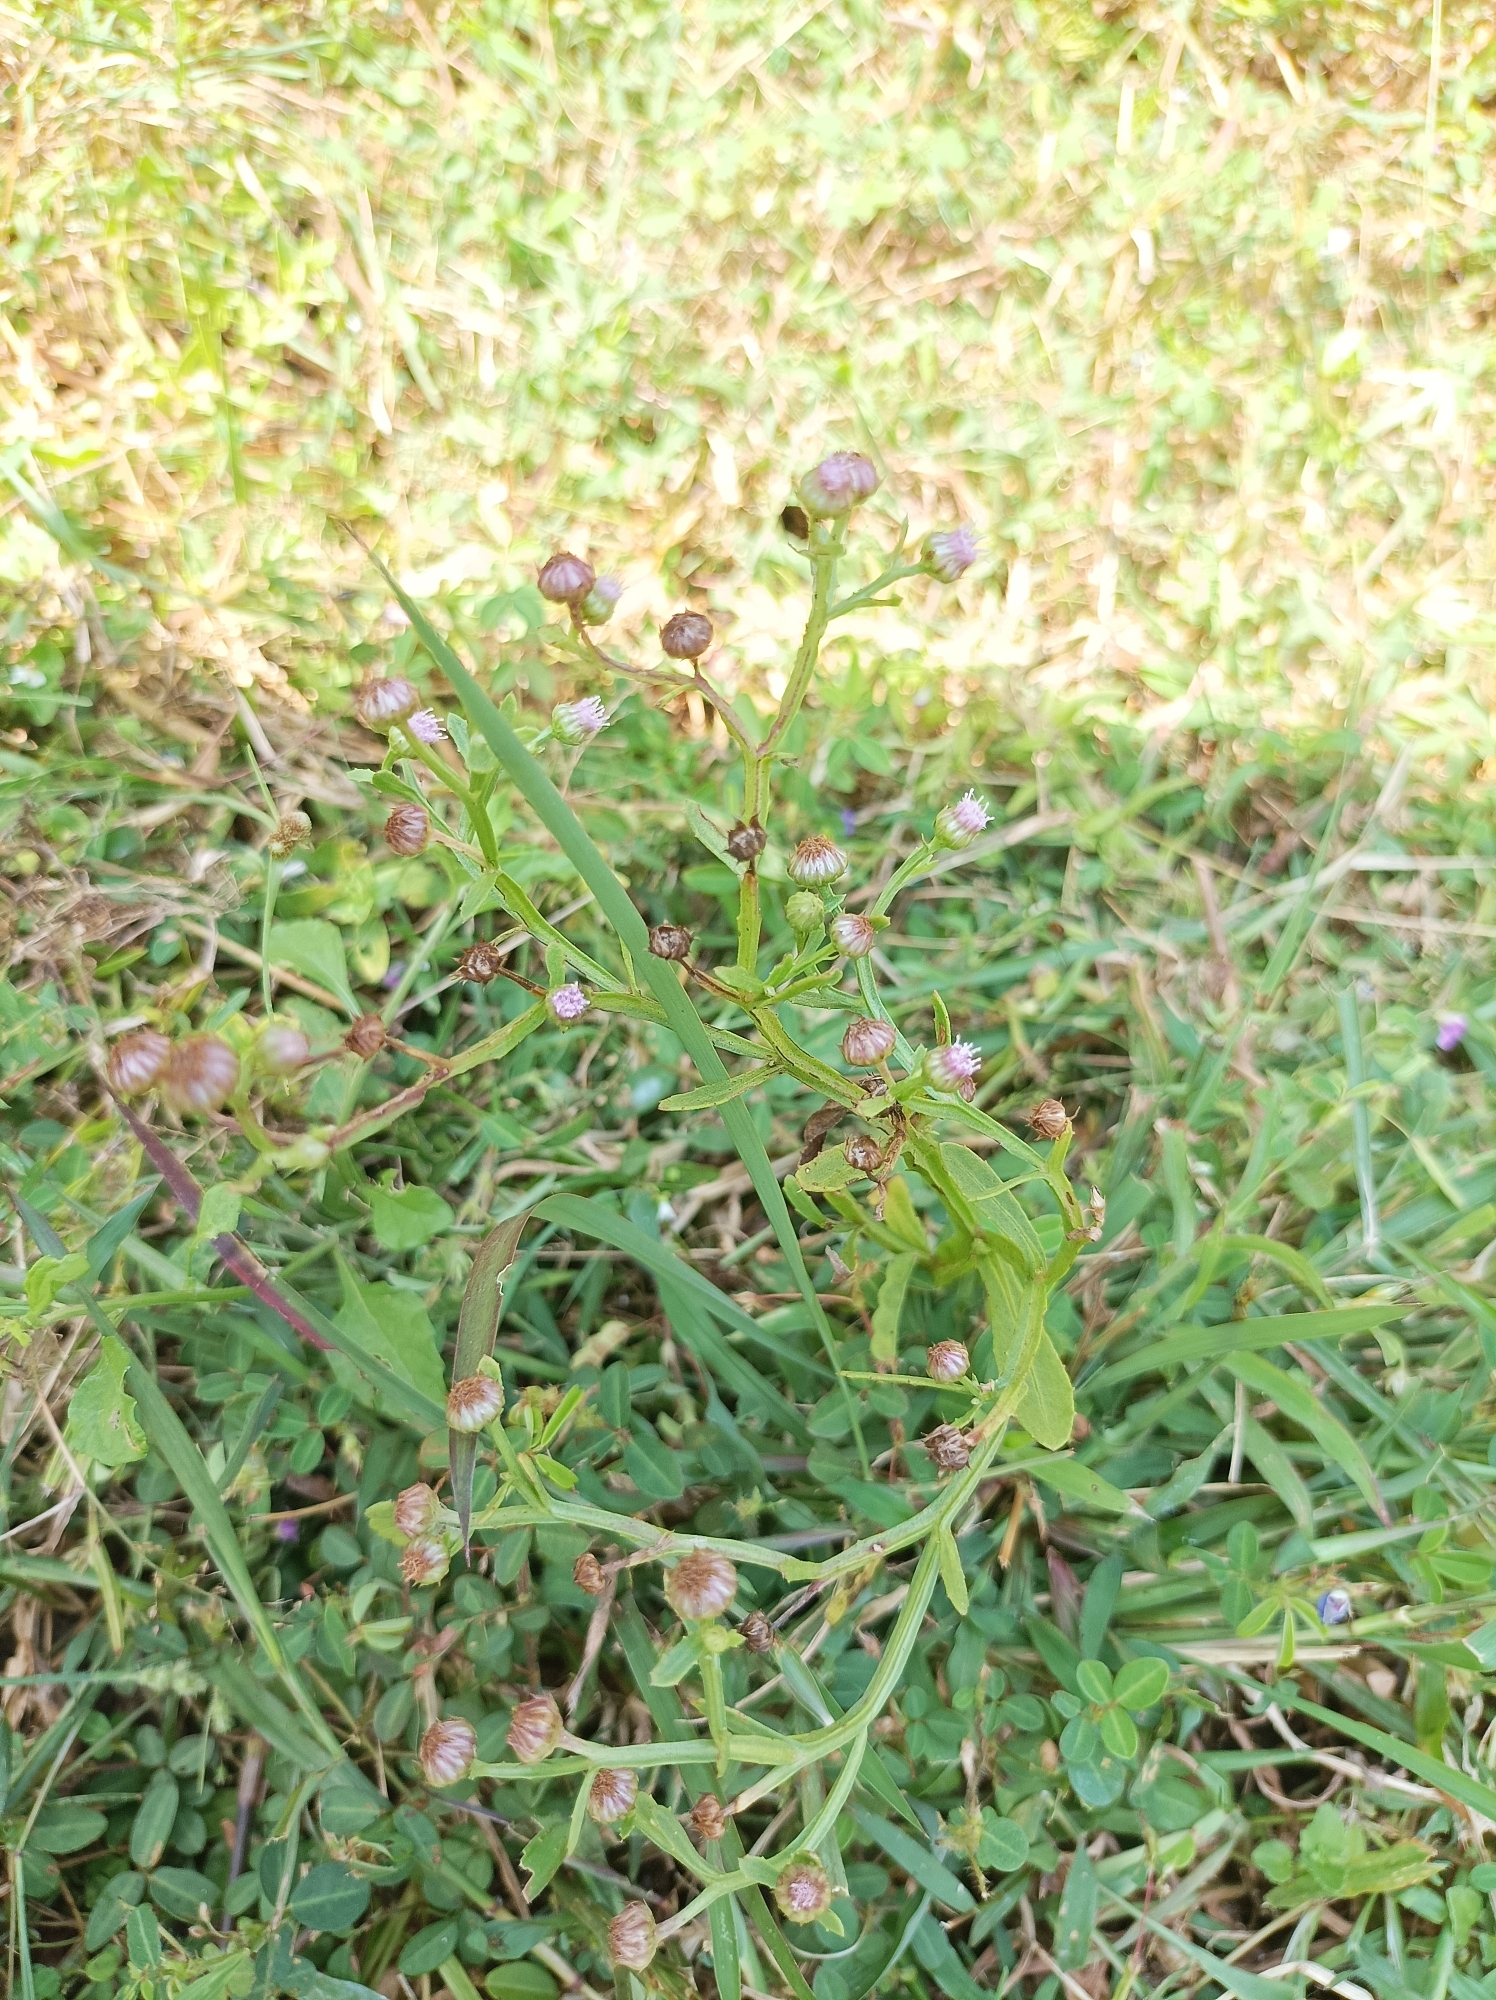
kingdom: Plantae
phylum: Tracheophyta
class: Magnoliopsida
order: Asterales
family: Asteraceae
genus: Epaltes
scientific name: Epaltes divaricata
